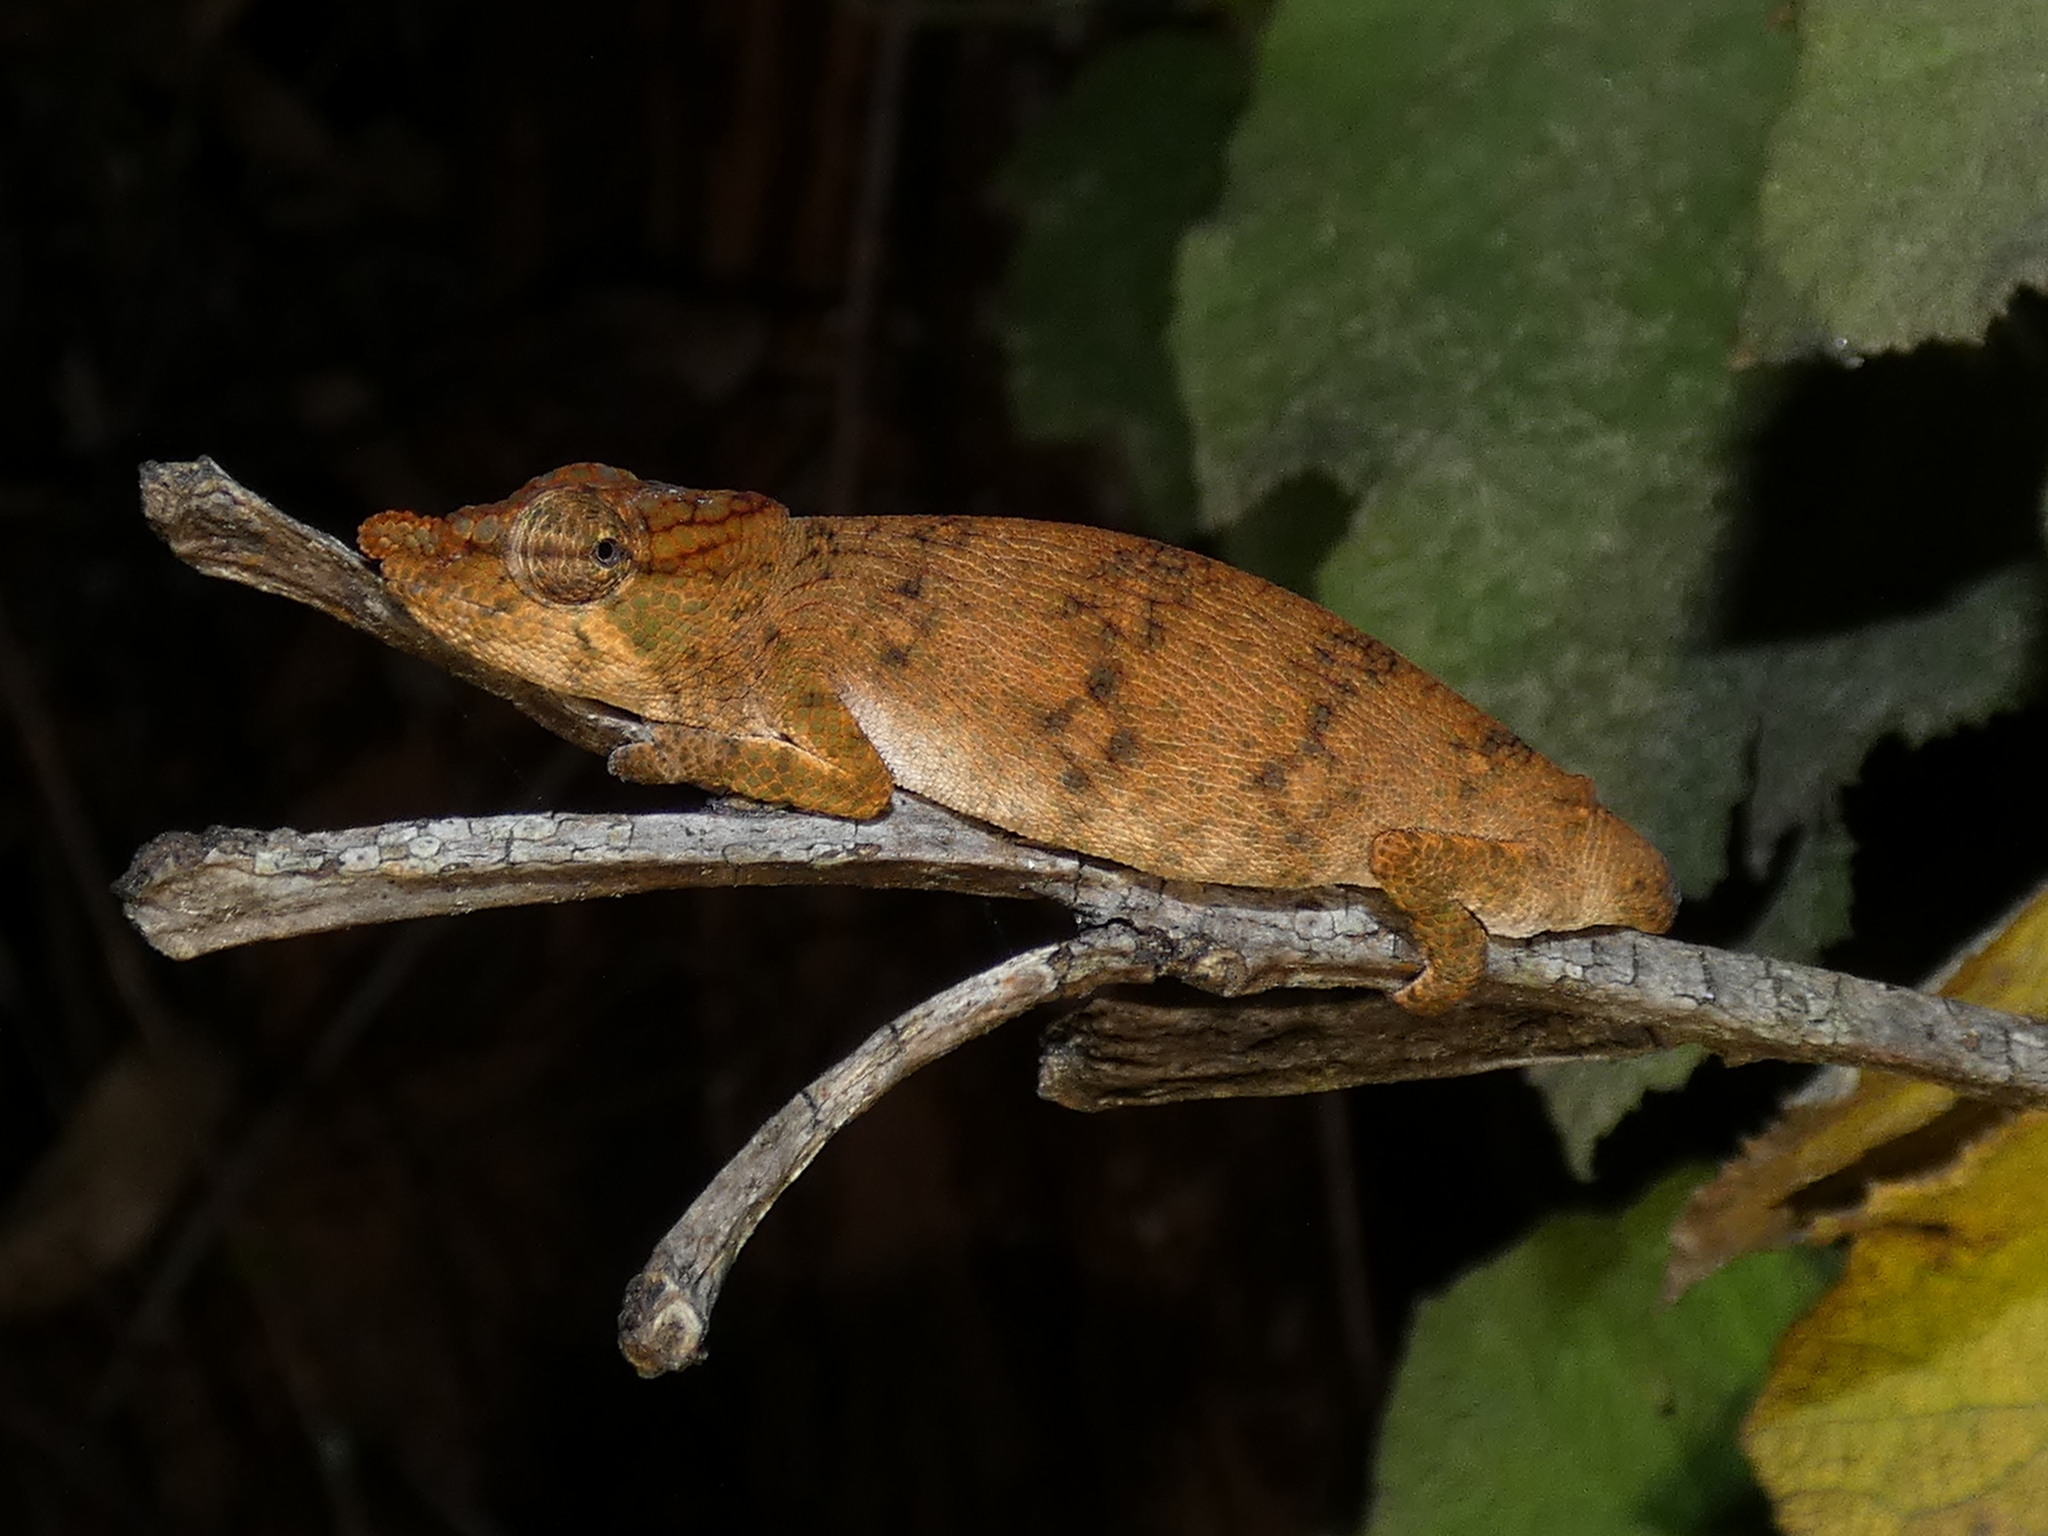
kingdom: Animalia
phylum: Chordata
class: Squamata
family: Chamaeleonidae
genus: Calumma
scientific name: Calumma emelinae
